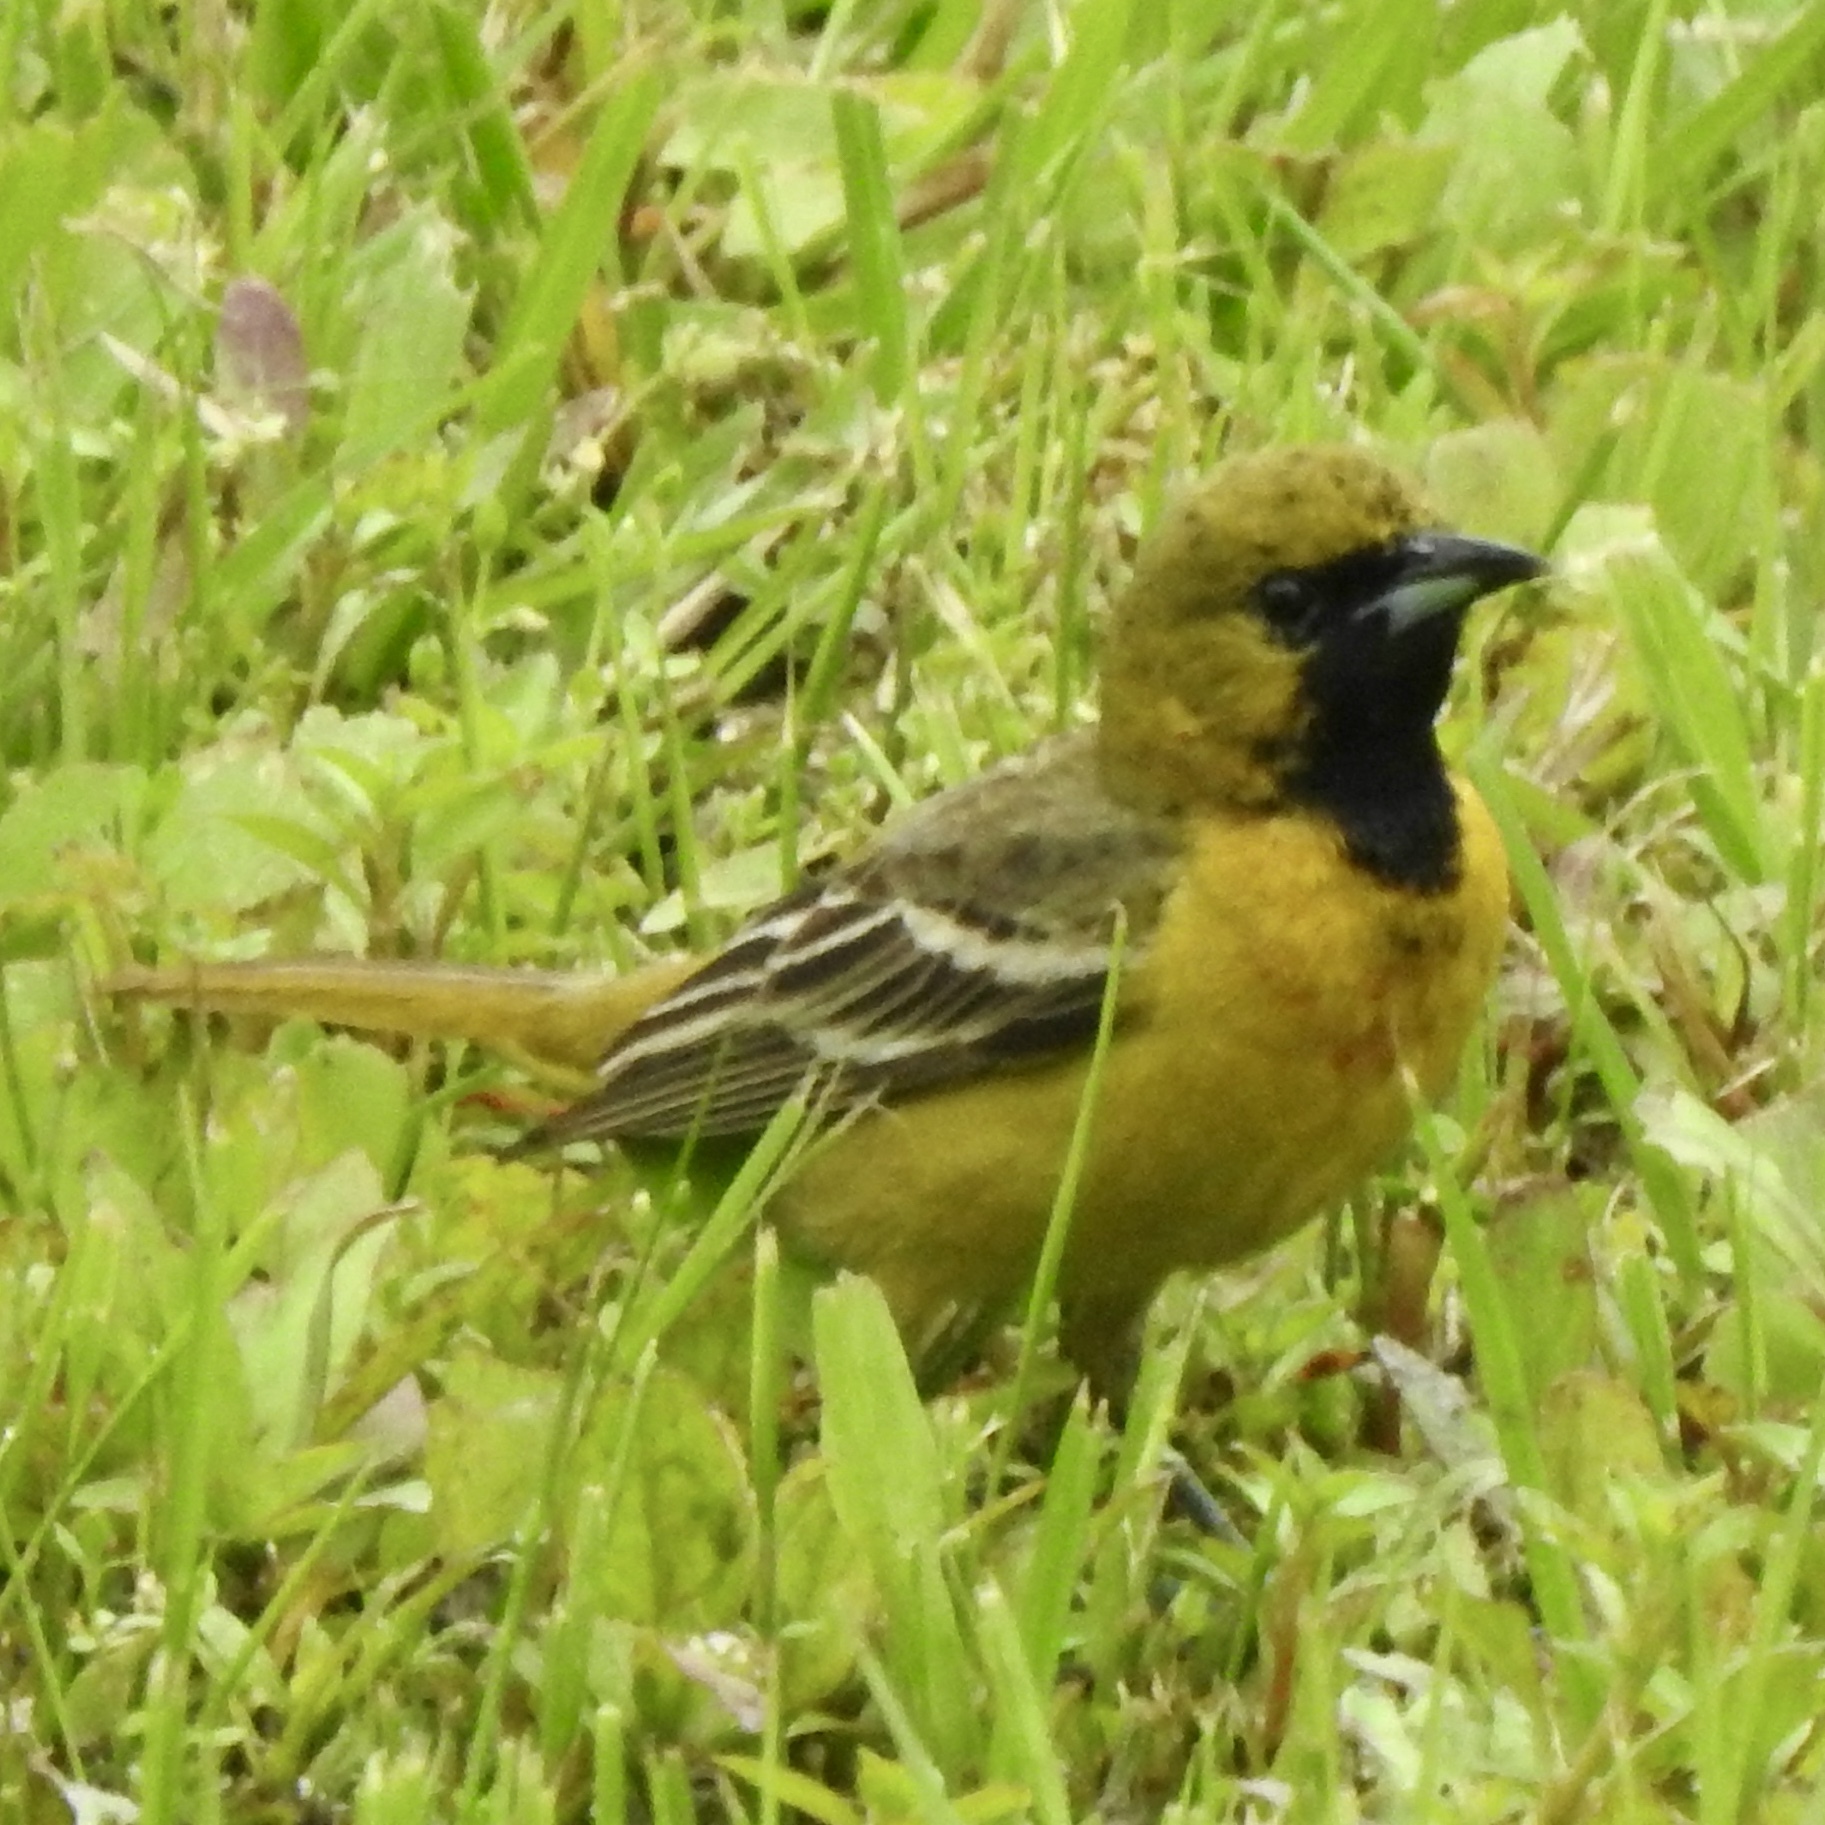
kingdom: Animalia
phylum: Chordata
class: Aves
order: Passeriformes
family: Icteridae
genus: Icterus
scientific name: Icterus spurius
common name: Orchard oriole
